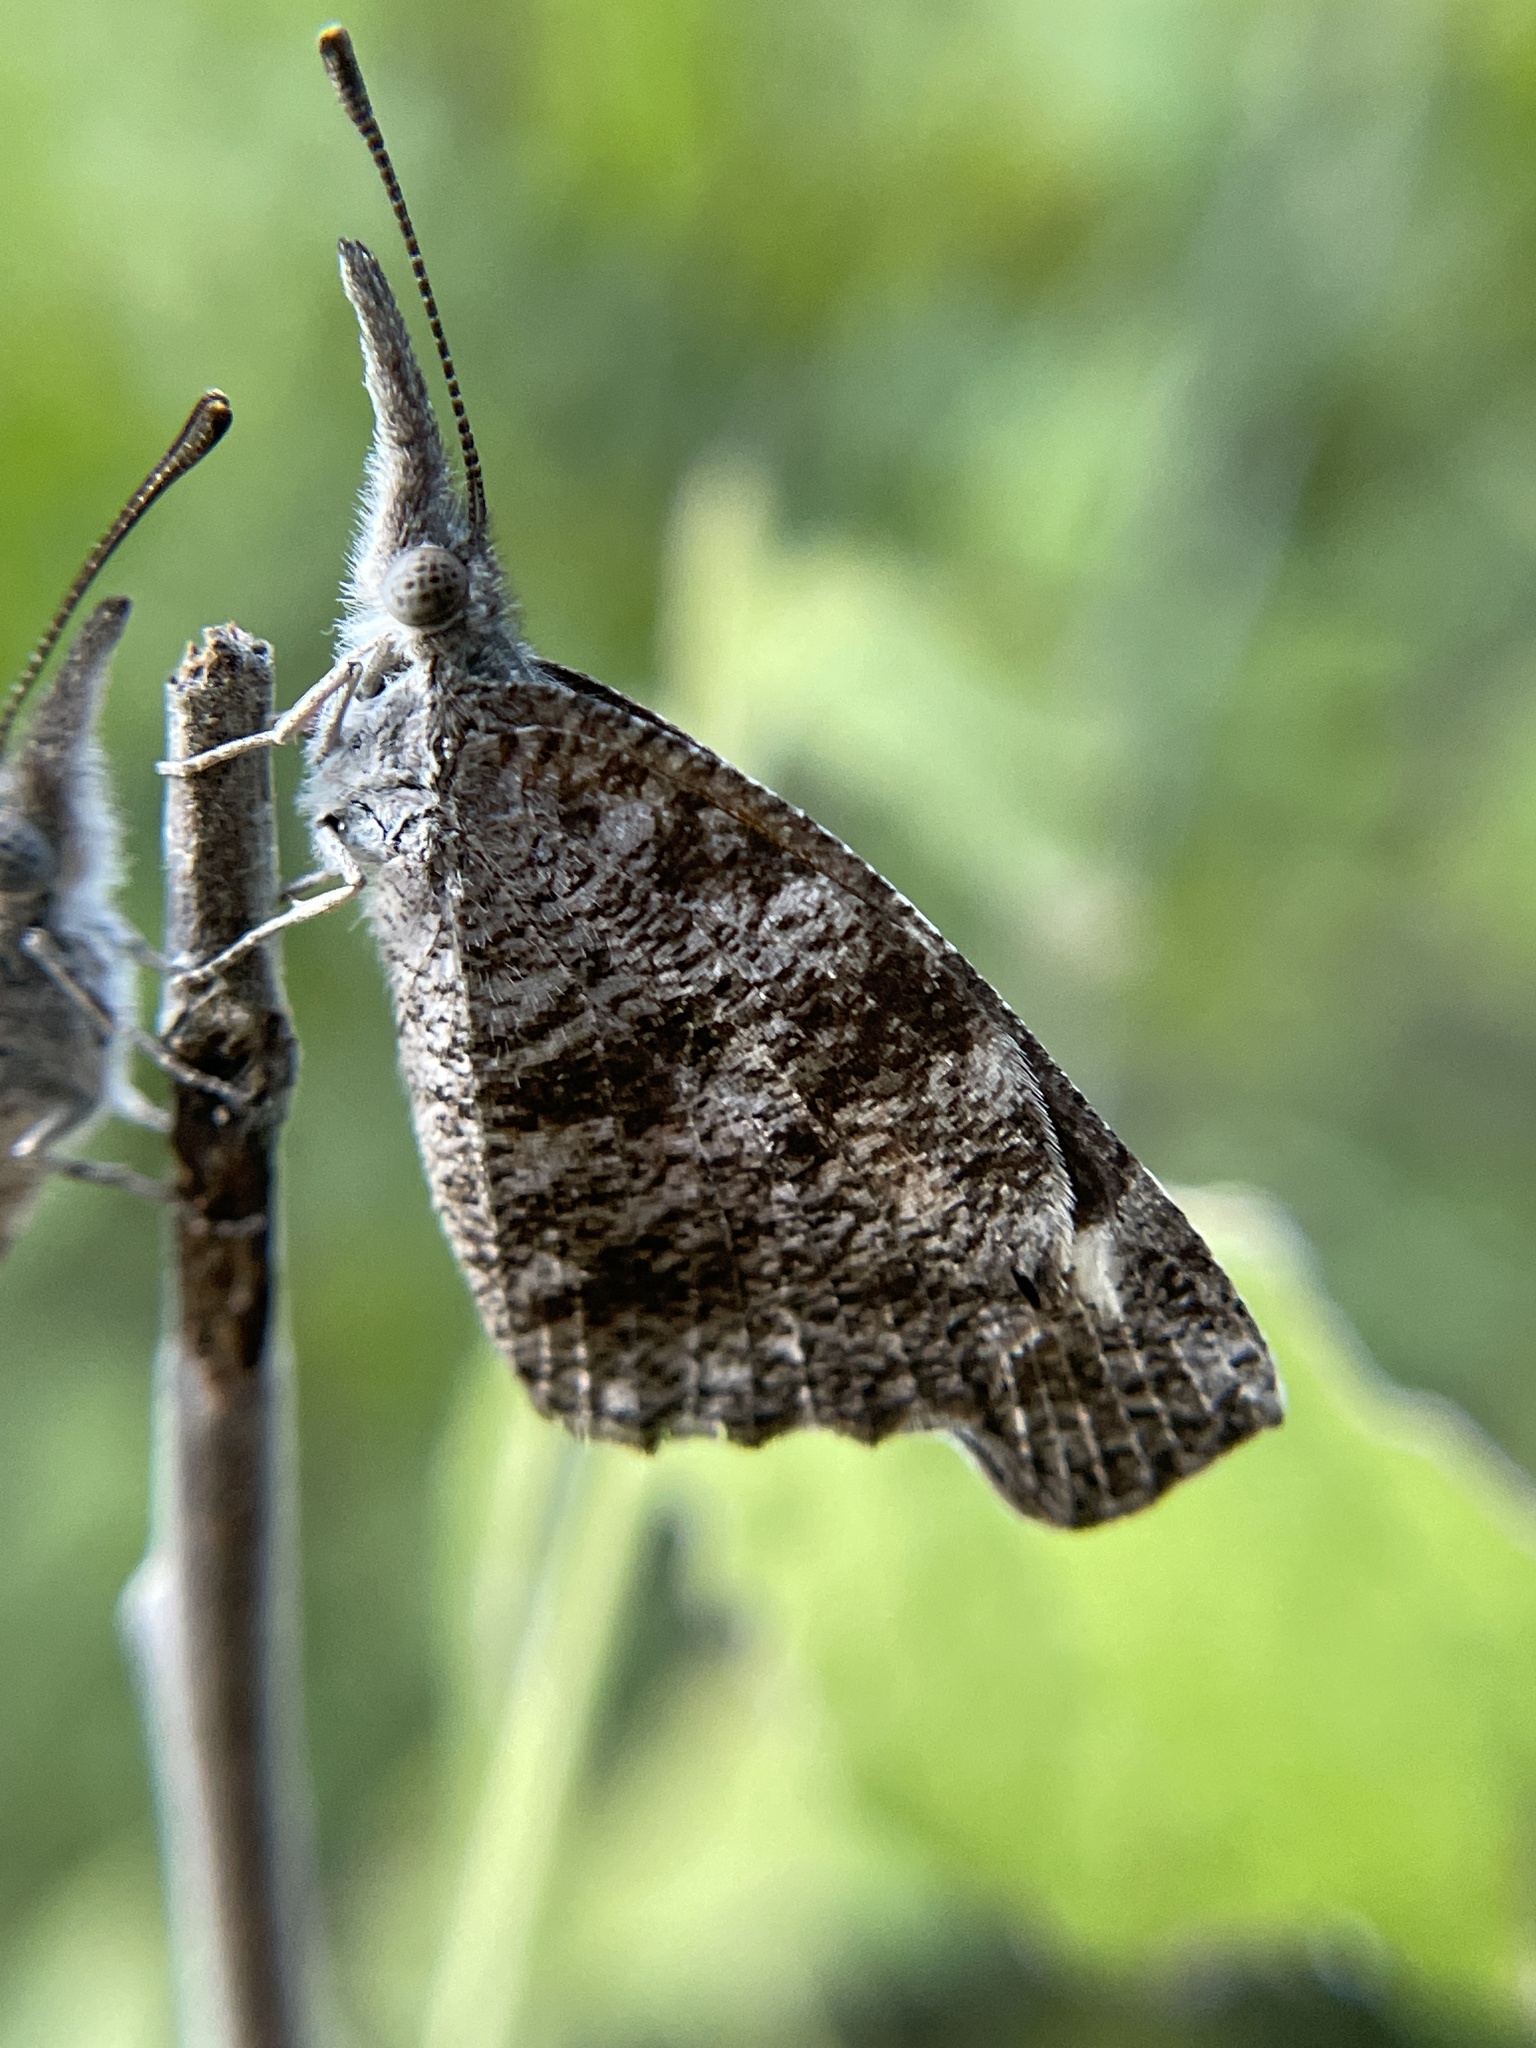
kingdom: Animalia
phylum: Arthropoda
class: Insecta
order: Lepidoptera
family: Nymphalidae
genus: Libytheana
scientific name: Libytheana carinenta
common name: American snout
